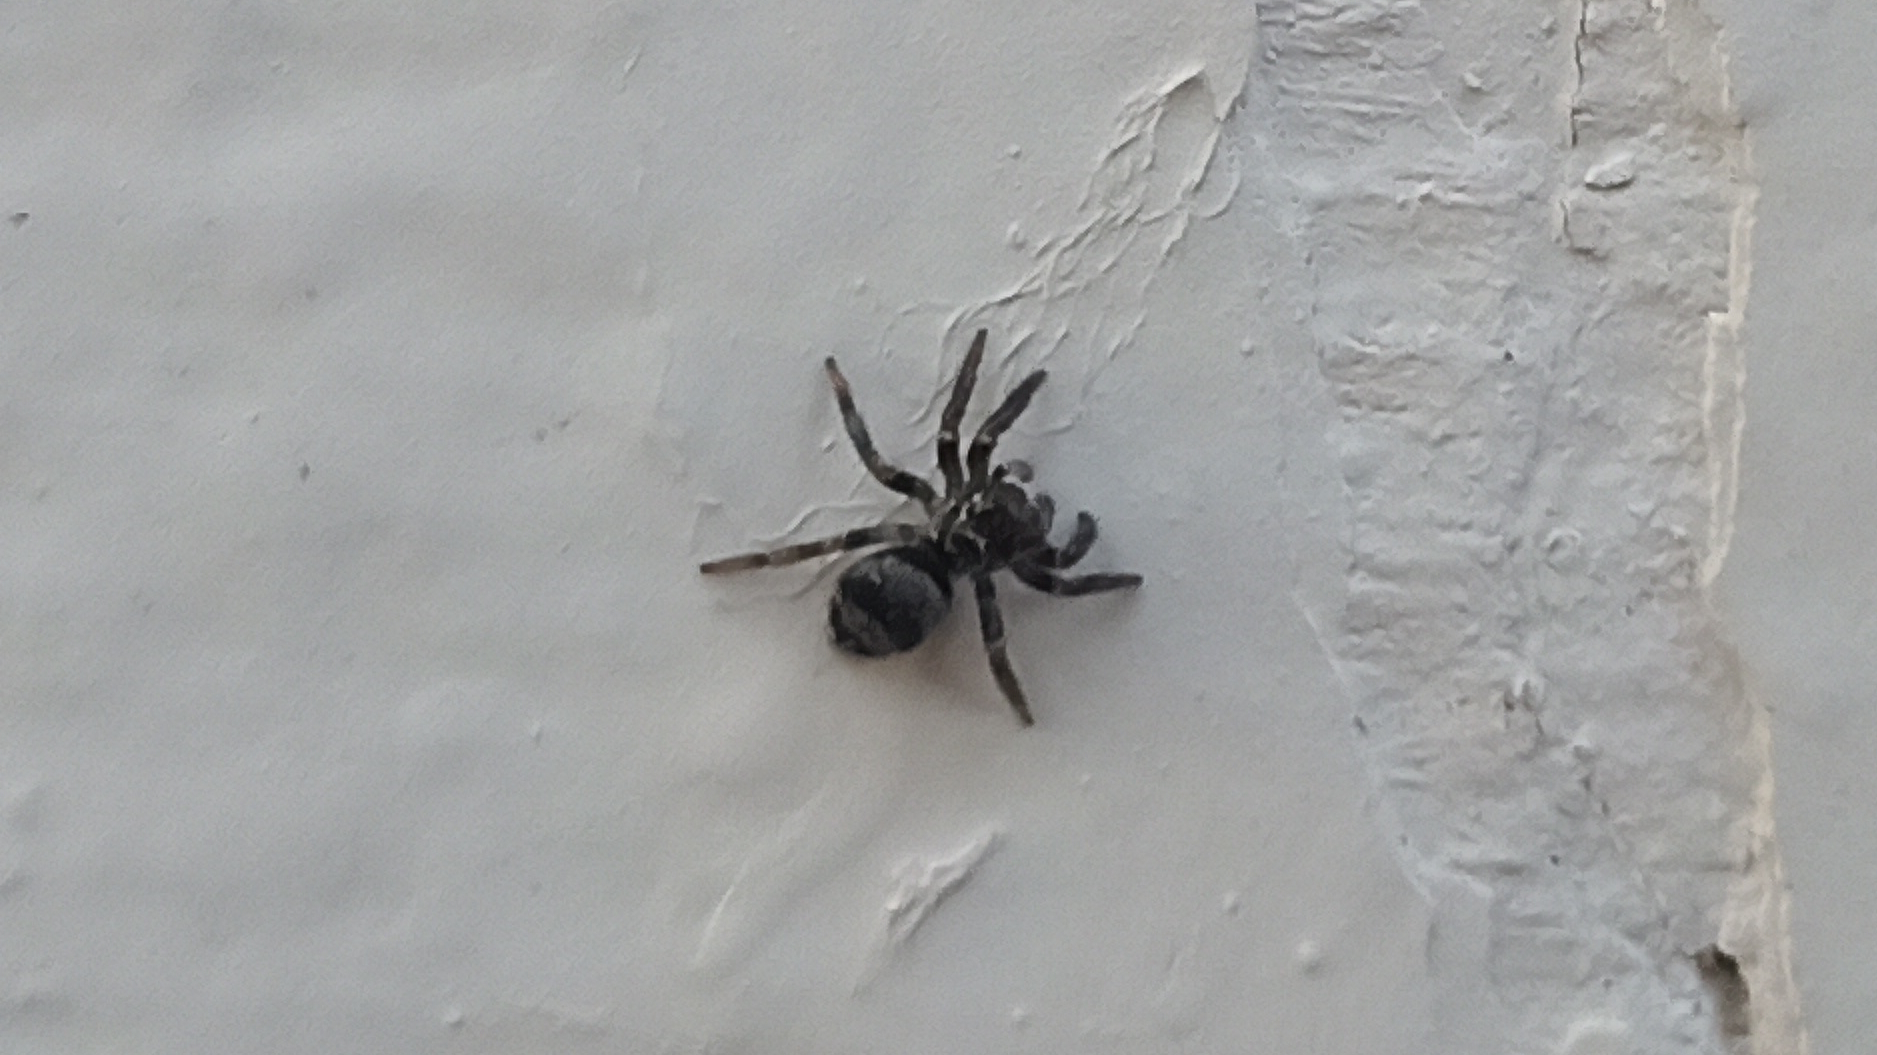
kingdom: Animalia
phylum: Arthropoda
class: Arachnida
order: Araneae
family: Salticidae
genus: Corythalia
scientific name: Corythalia conferta
